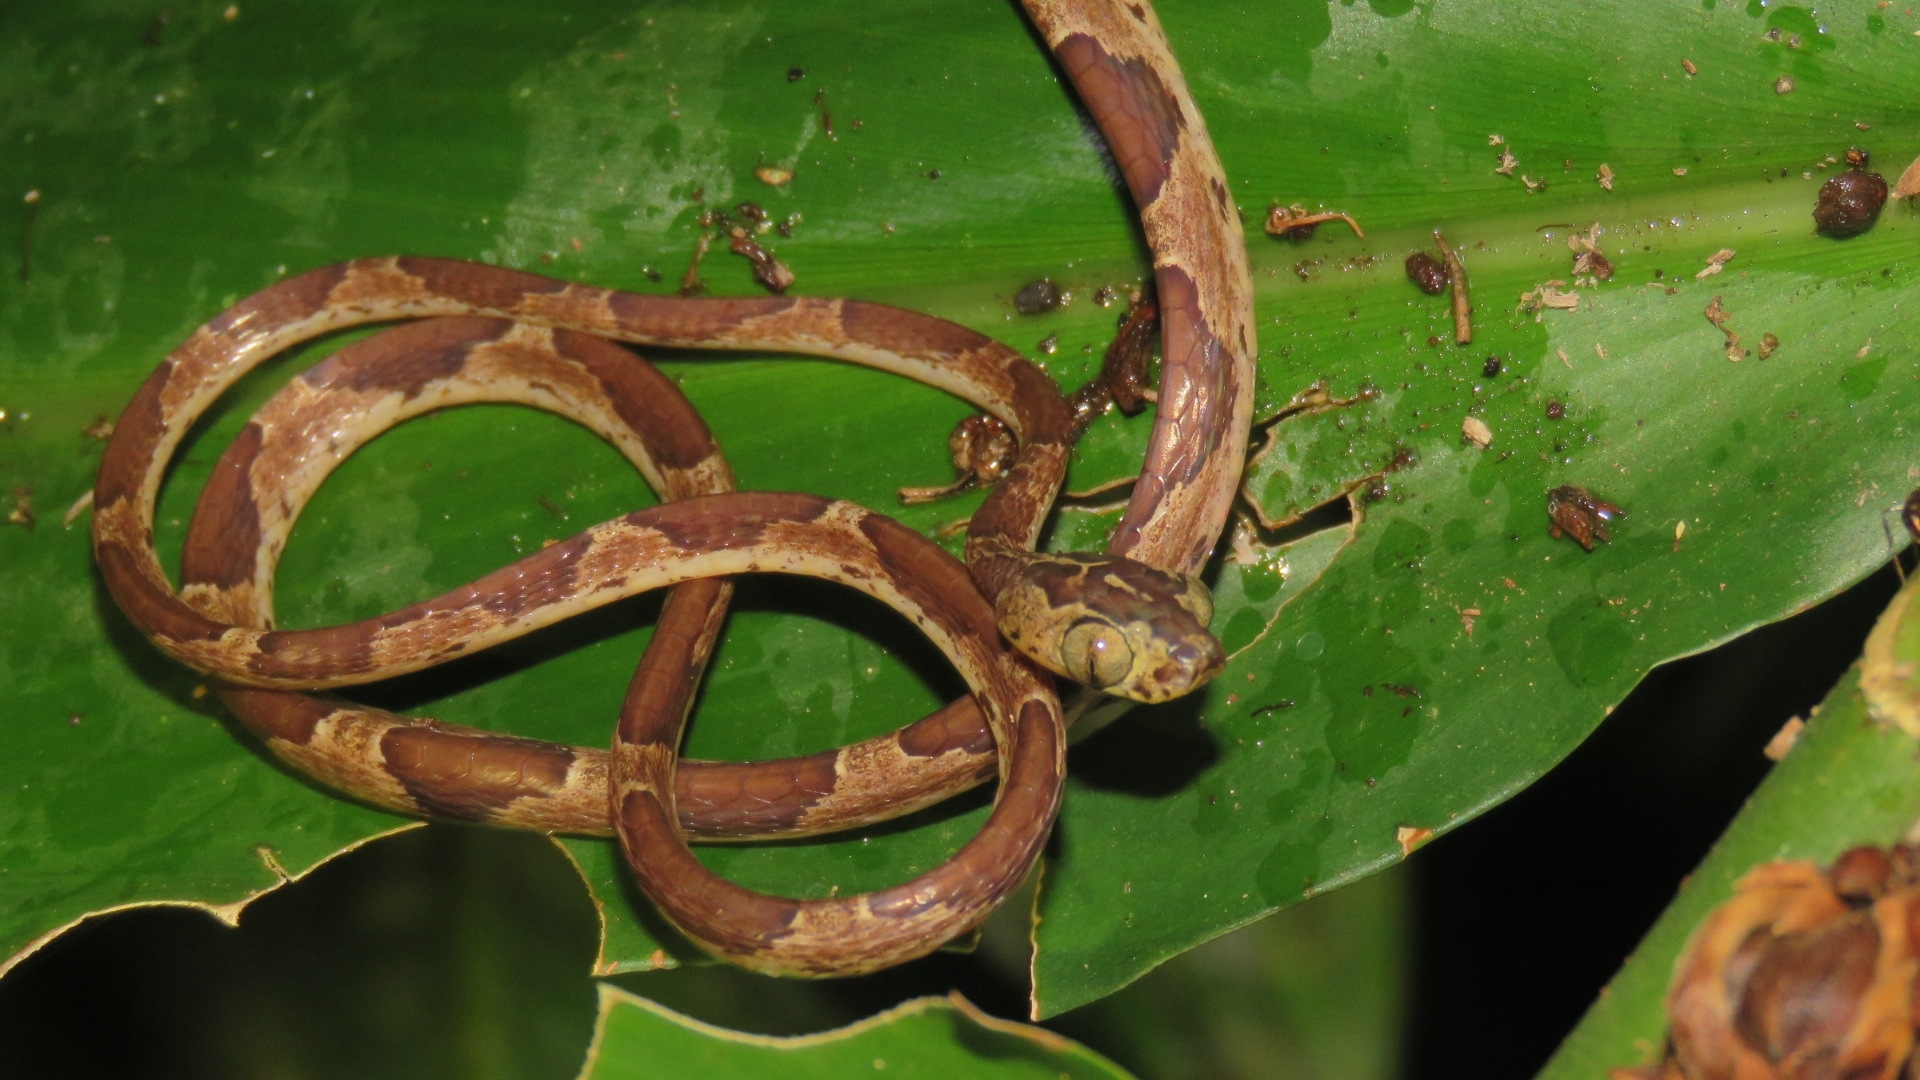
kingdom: Animalia
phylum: Chordata
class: Squamata
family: Colubridae
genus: Imantodes
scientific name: Imantodes cenchoa
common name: Blunthead tree snake
